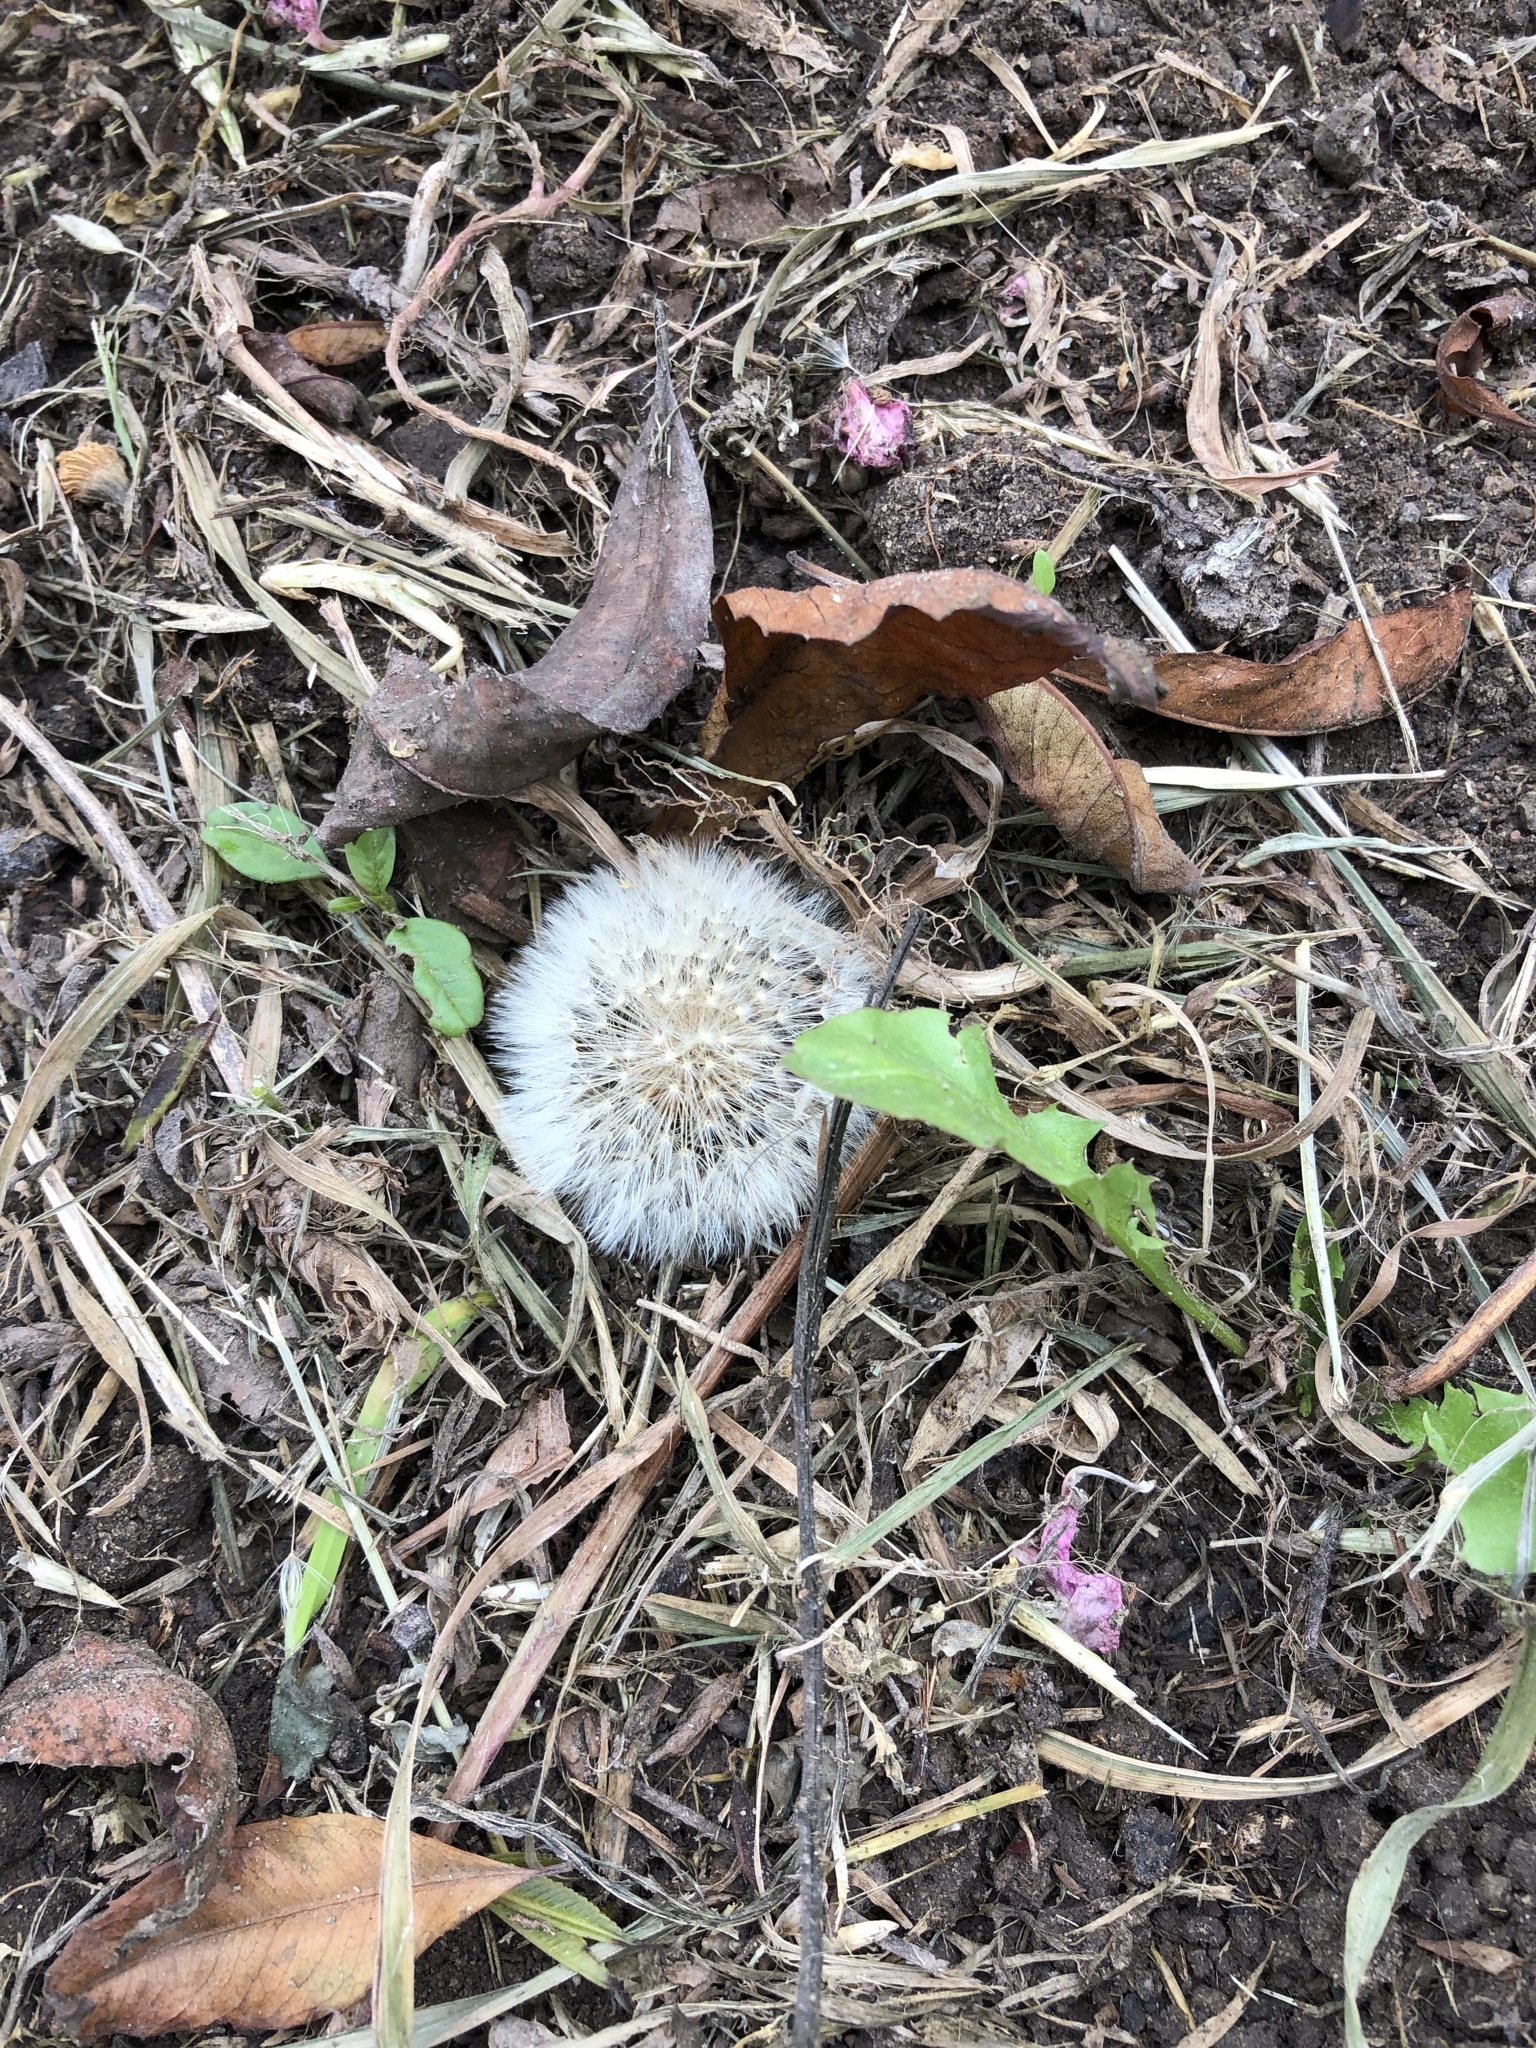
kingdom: Plantae
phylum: Tracheophyta
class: Magnoliopsida
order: Asterales
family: Asteraceae
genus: Taraxacum
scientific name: Taraxacum officinale
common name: Common dandelion
